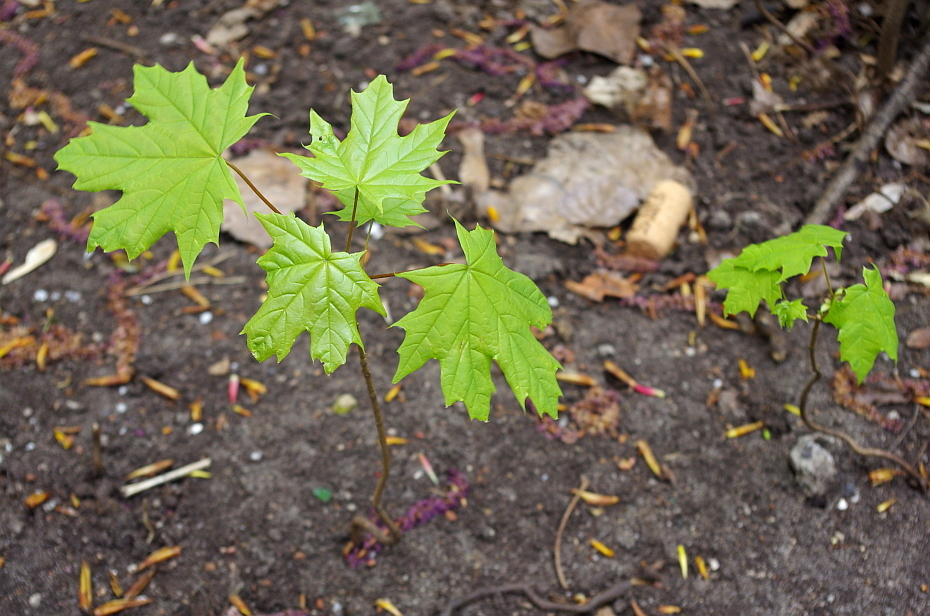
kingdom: Plantae
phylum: Tracheophyta
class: Magnoliopsida
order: Sapindales
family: Sapindaceae
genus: Acer
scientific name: Acer platanoides
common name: Norway maple
